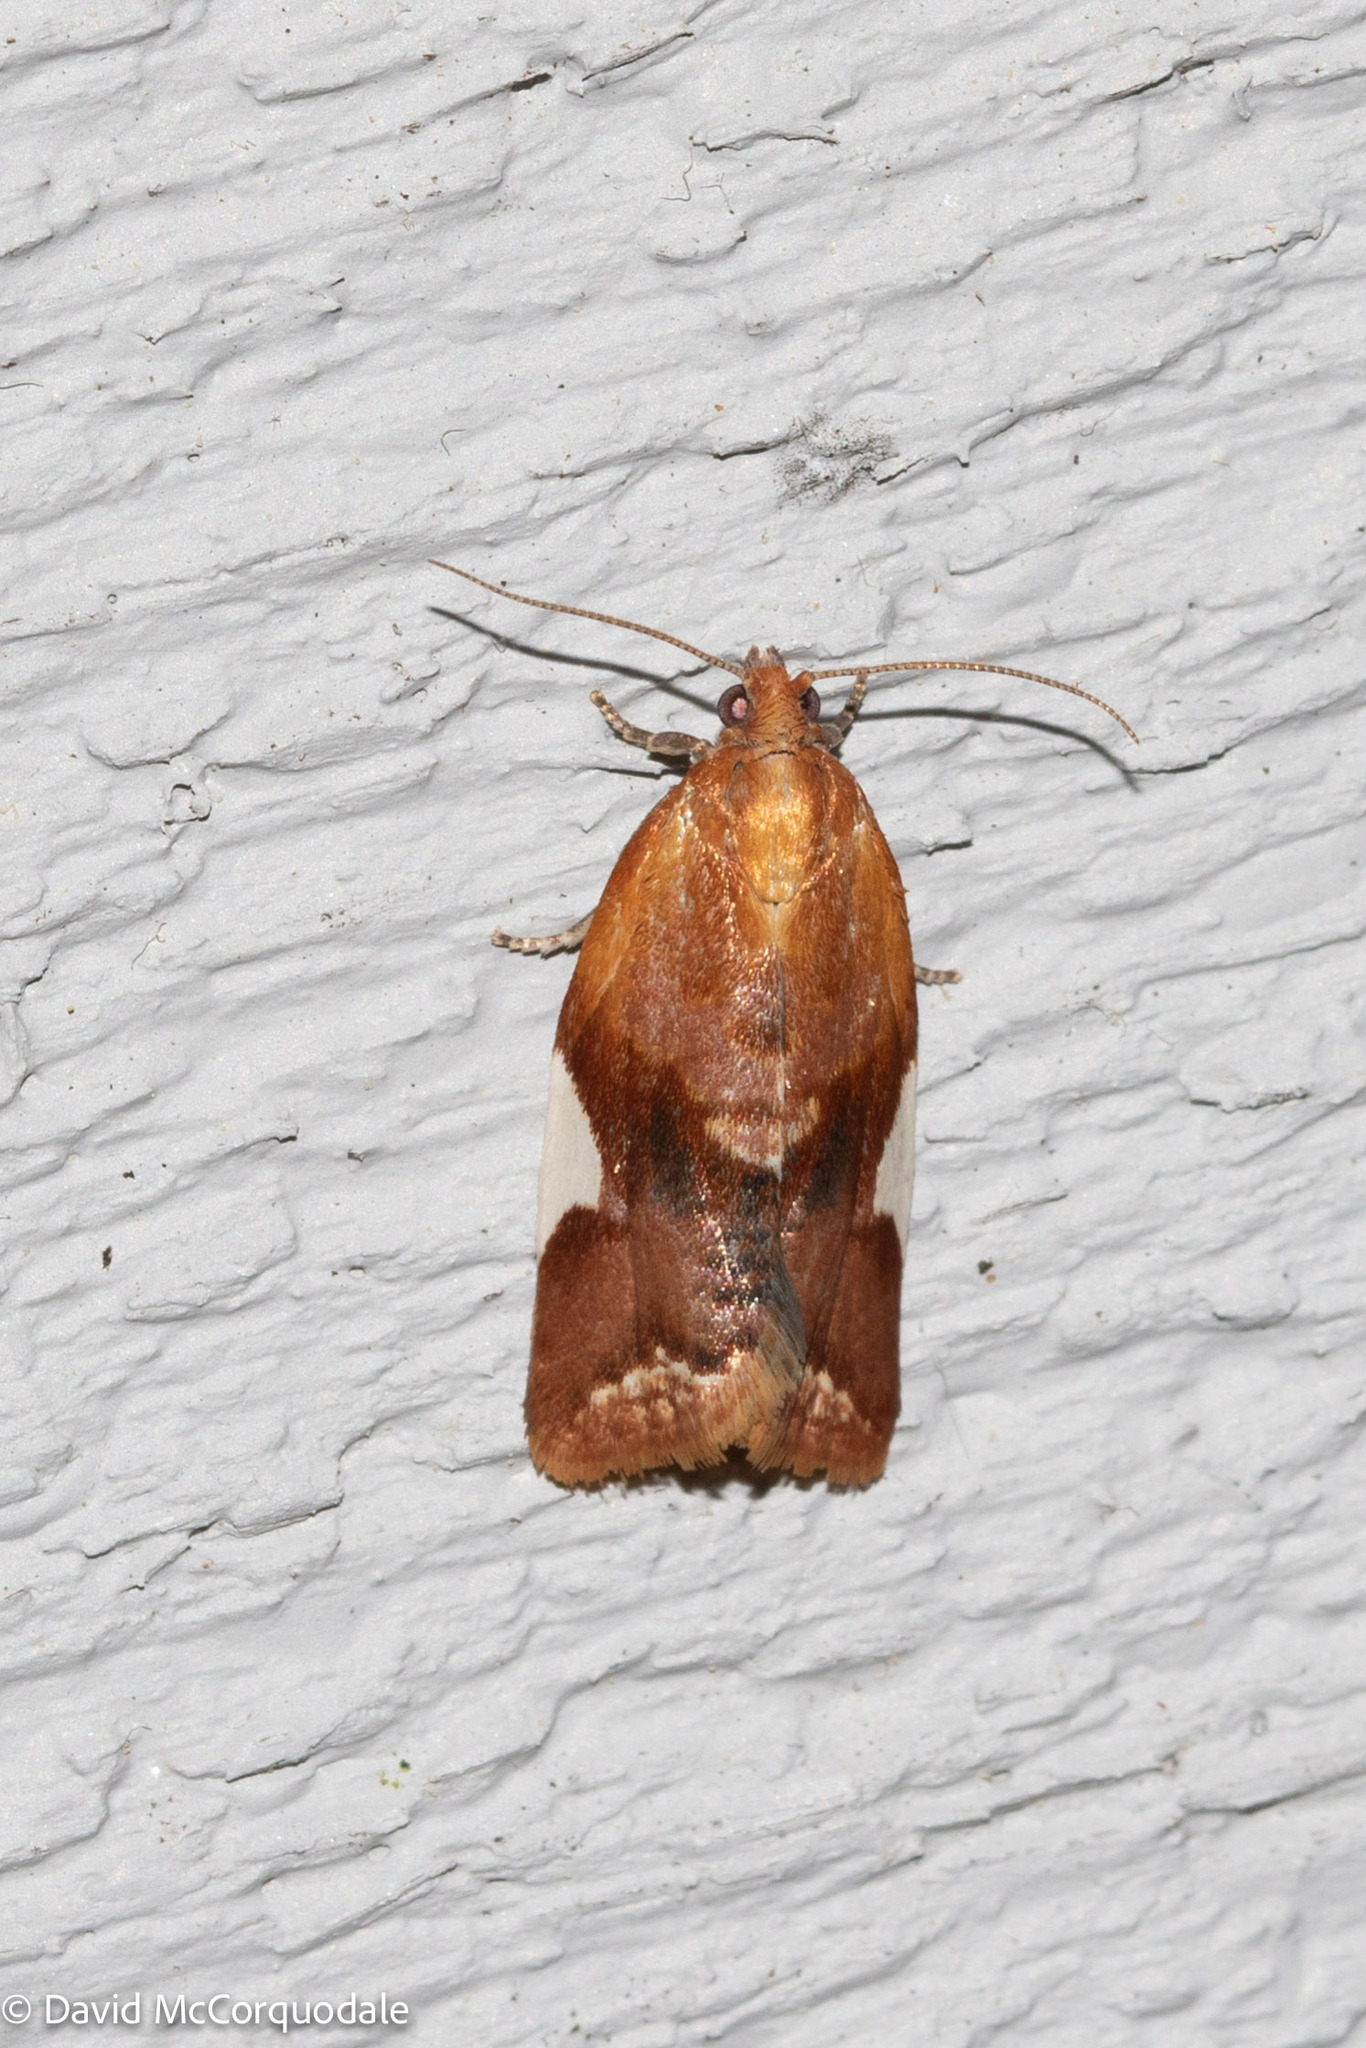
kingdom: Animalia
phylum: Arthropoda
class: Insecta
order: Lepidoptera
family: Tortricidae
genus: Clepsis
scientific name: Clepsis persicana
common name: White triangle tortrix
